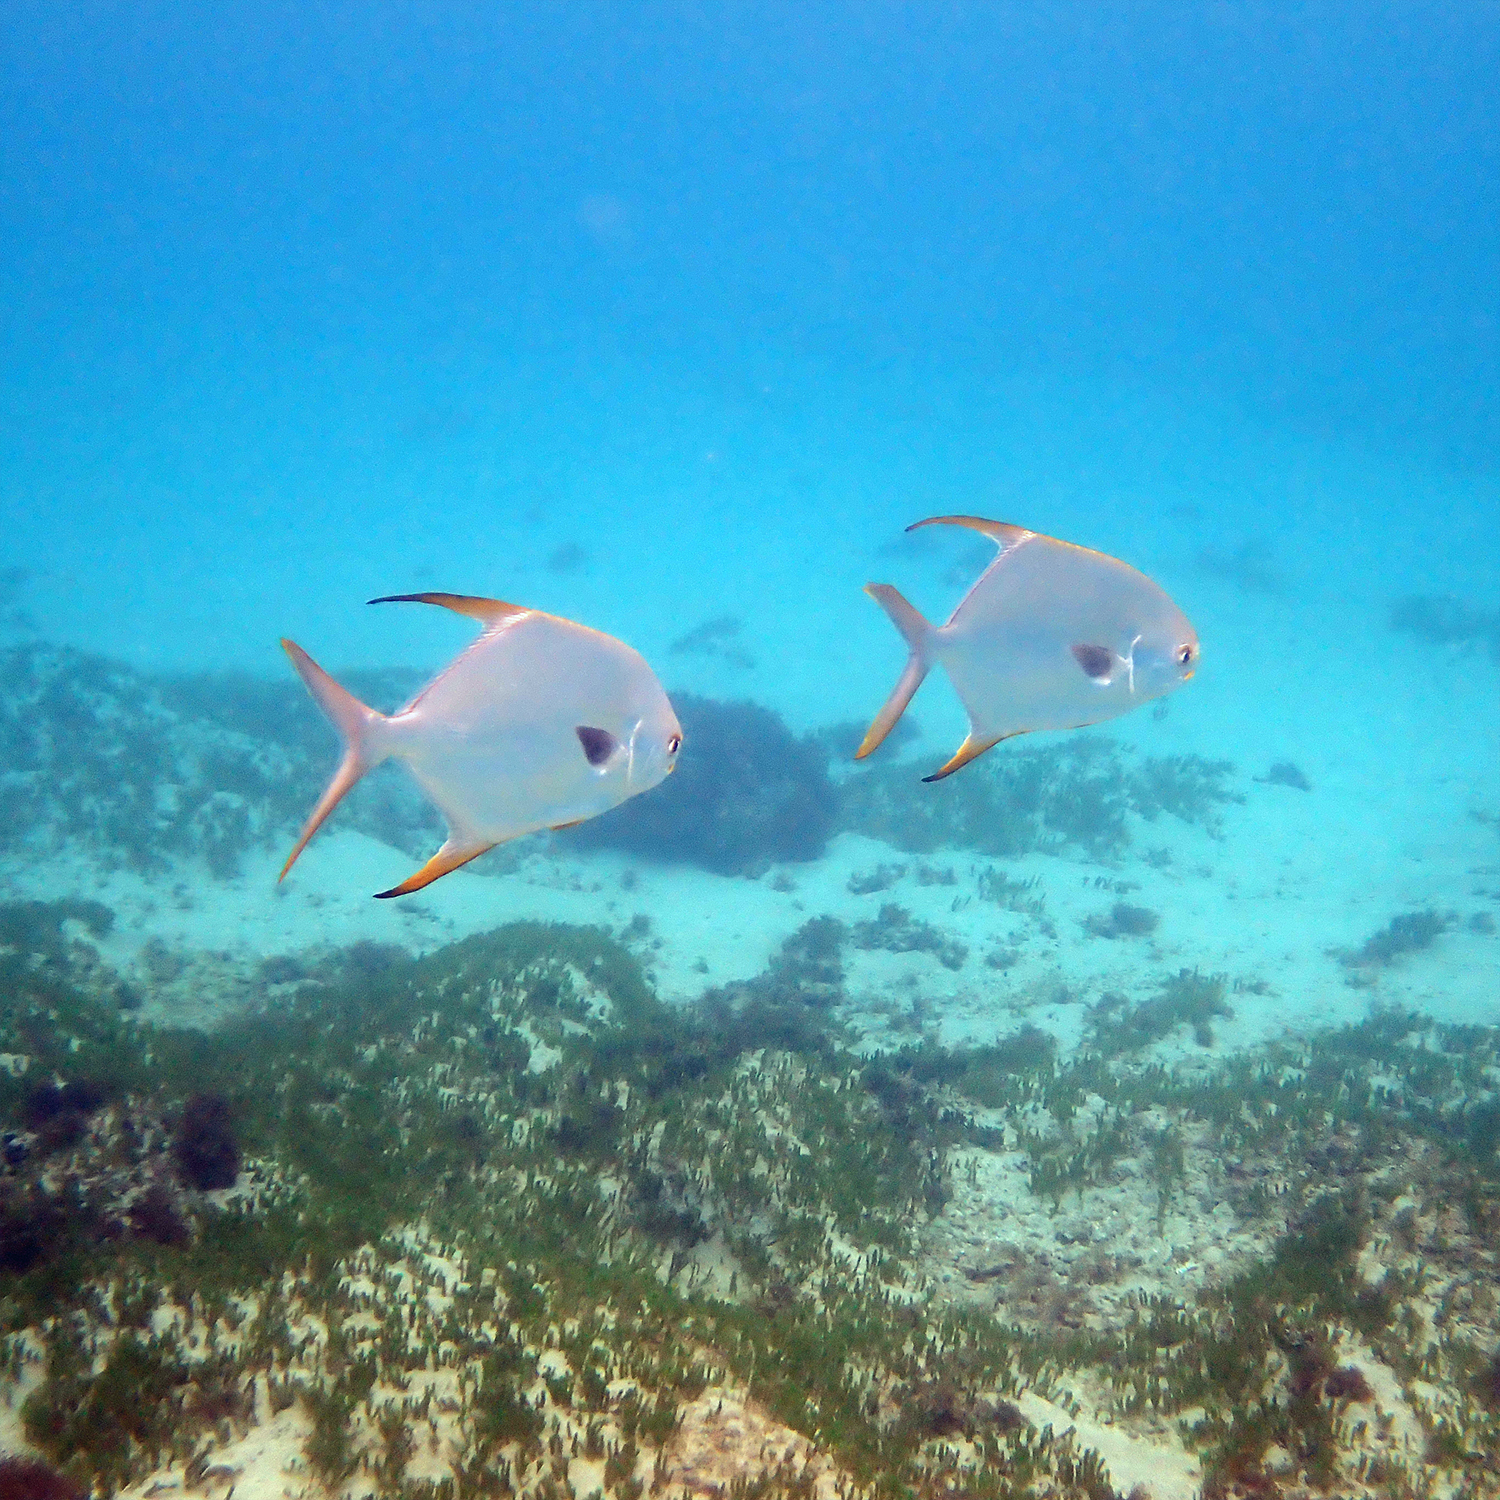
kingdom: Animalia
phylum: Chordata
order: Perciformes
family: Carangidae
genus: Trachinotus
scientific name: Trachinotus blochii
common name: Snubnose pompano
